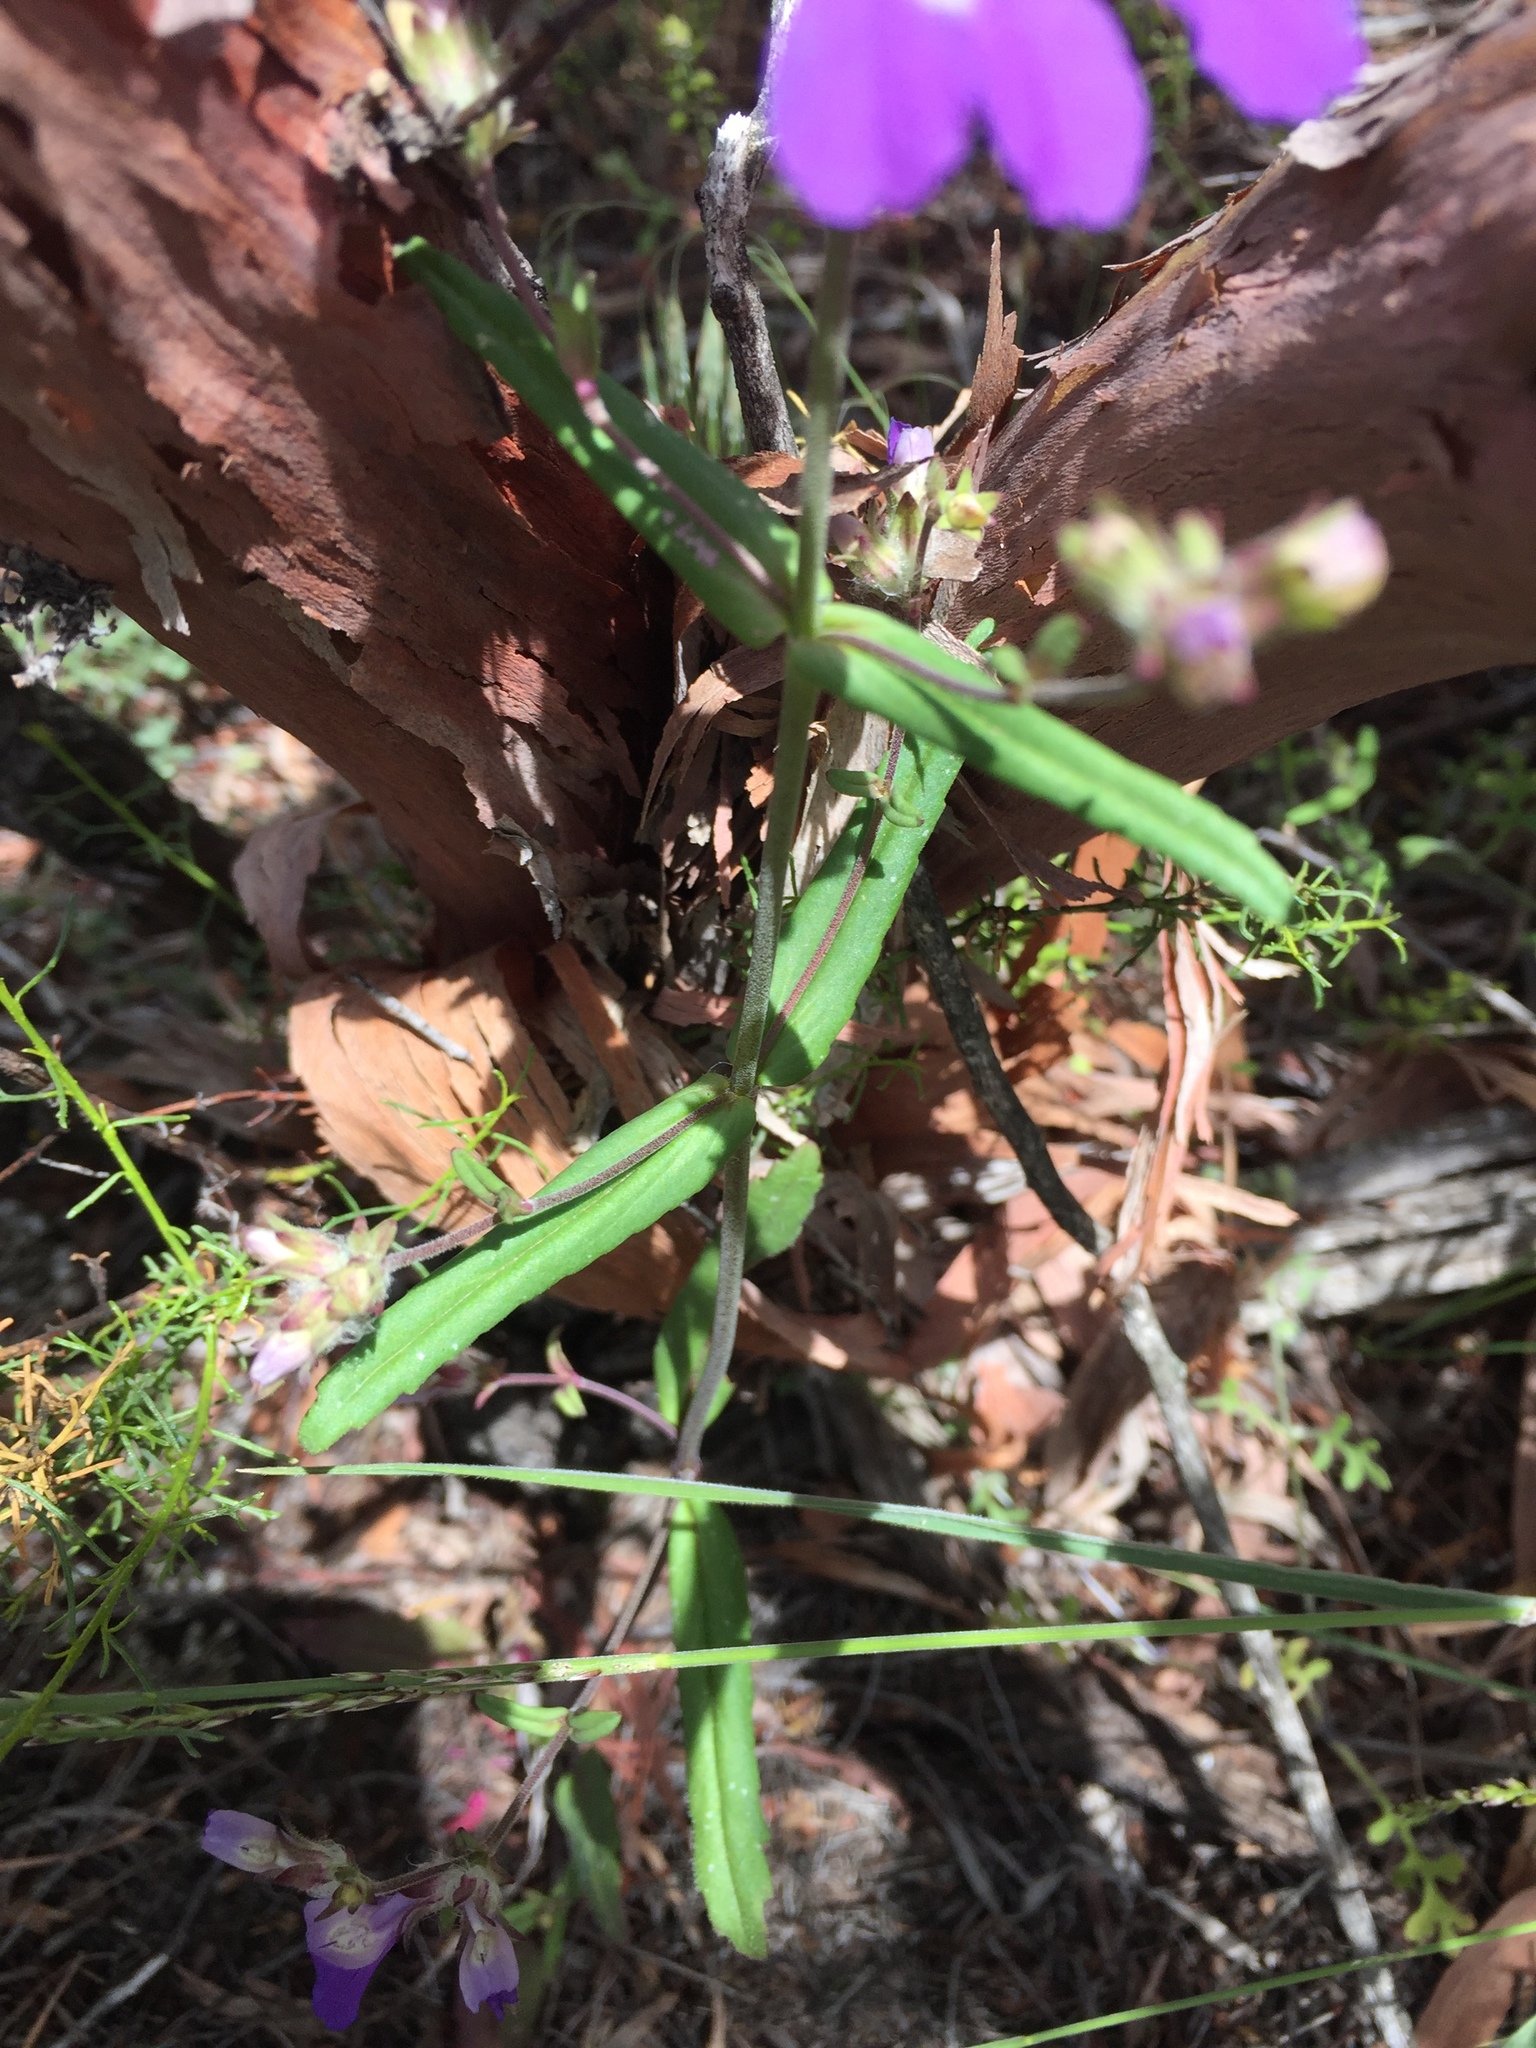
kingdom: Plantae
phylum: Tracheophyta
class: Magnoliopsida
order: Lamiales
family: Plantaginaceae
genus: Collinsia
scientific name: Collinsia concolor
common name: Chinese houses
